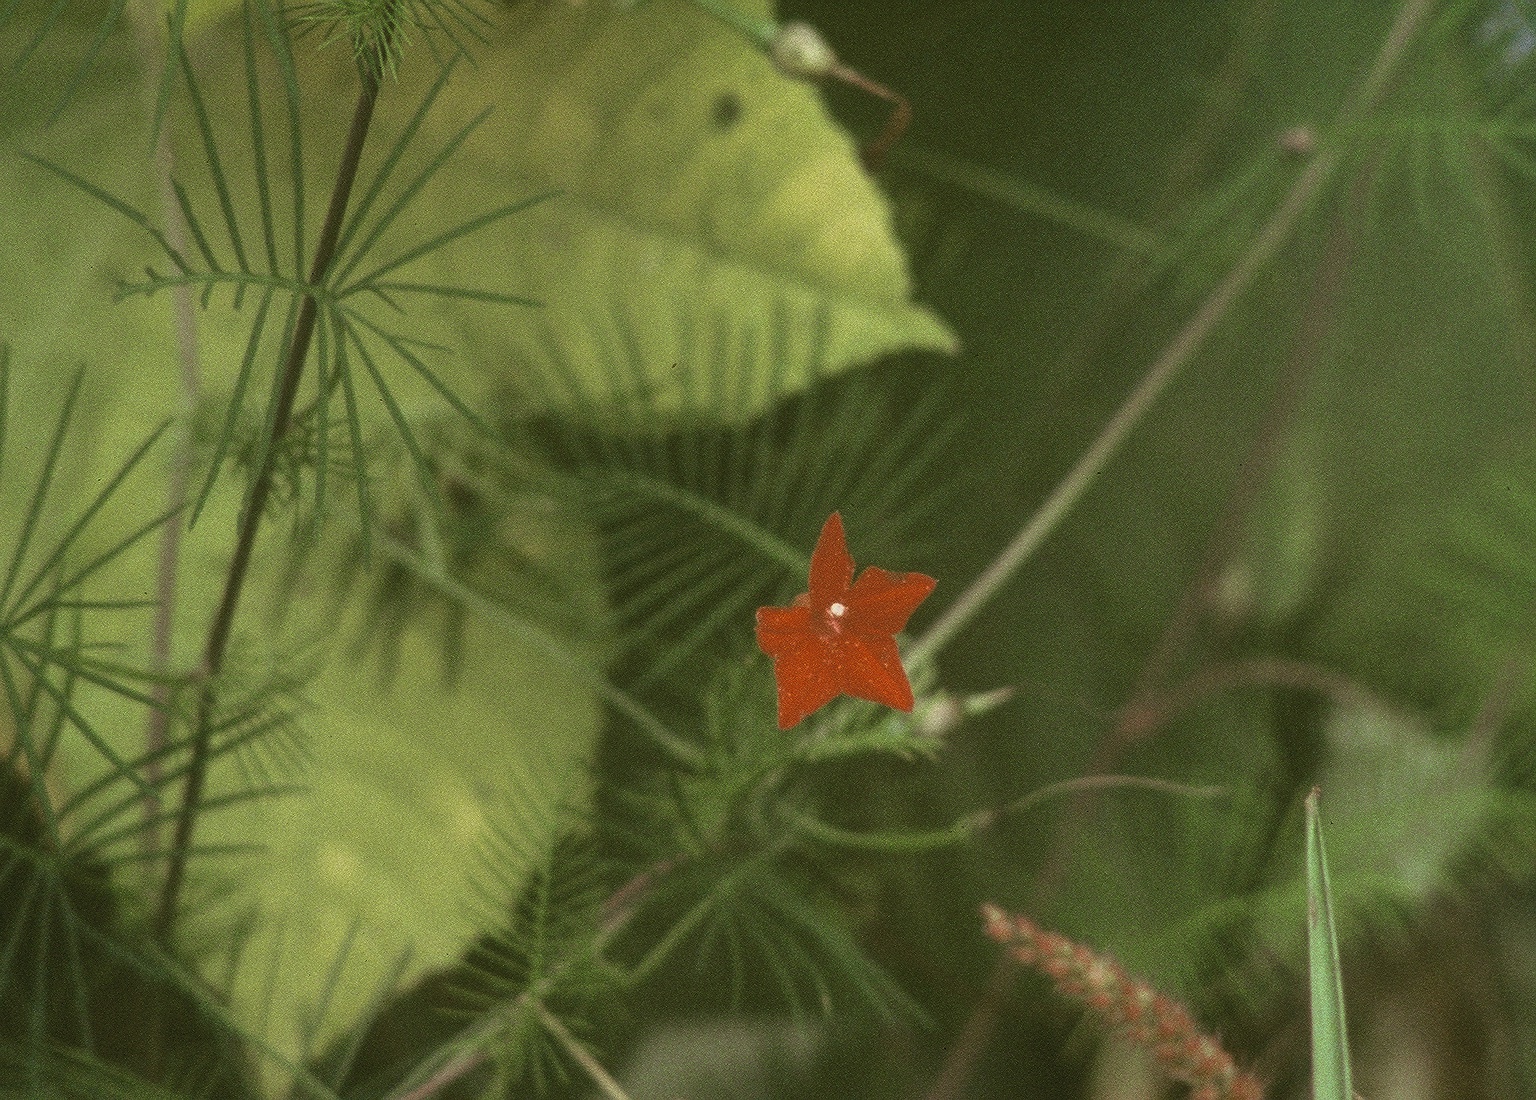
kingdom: Plantae
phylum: Tracheophyta
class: Magnoliopsida
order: Solanales
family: Convolvulaceae
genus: Ipomoea
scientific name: Ipomoea quamoclit
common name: Cypress vine
